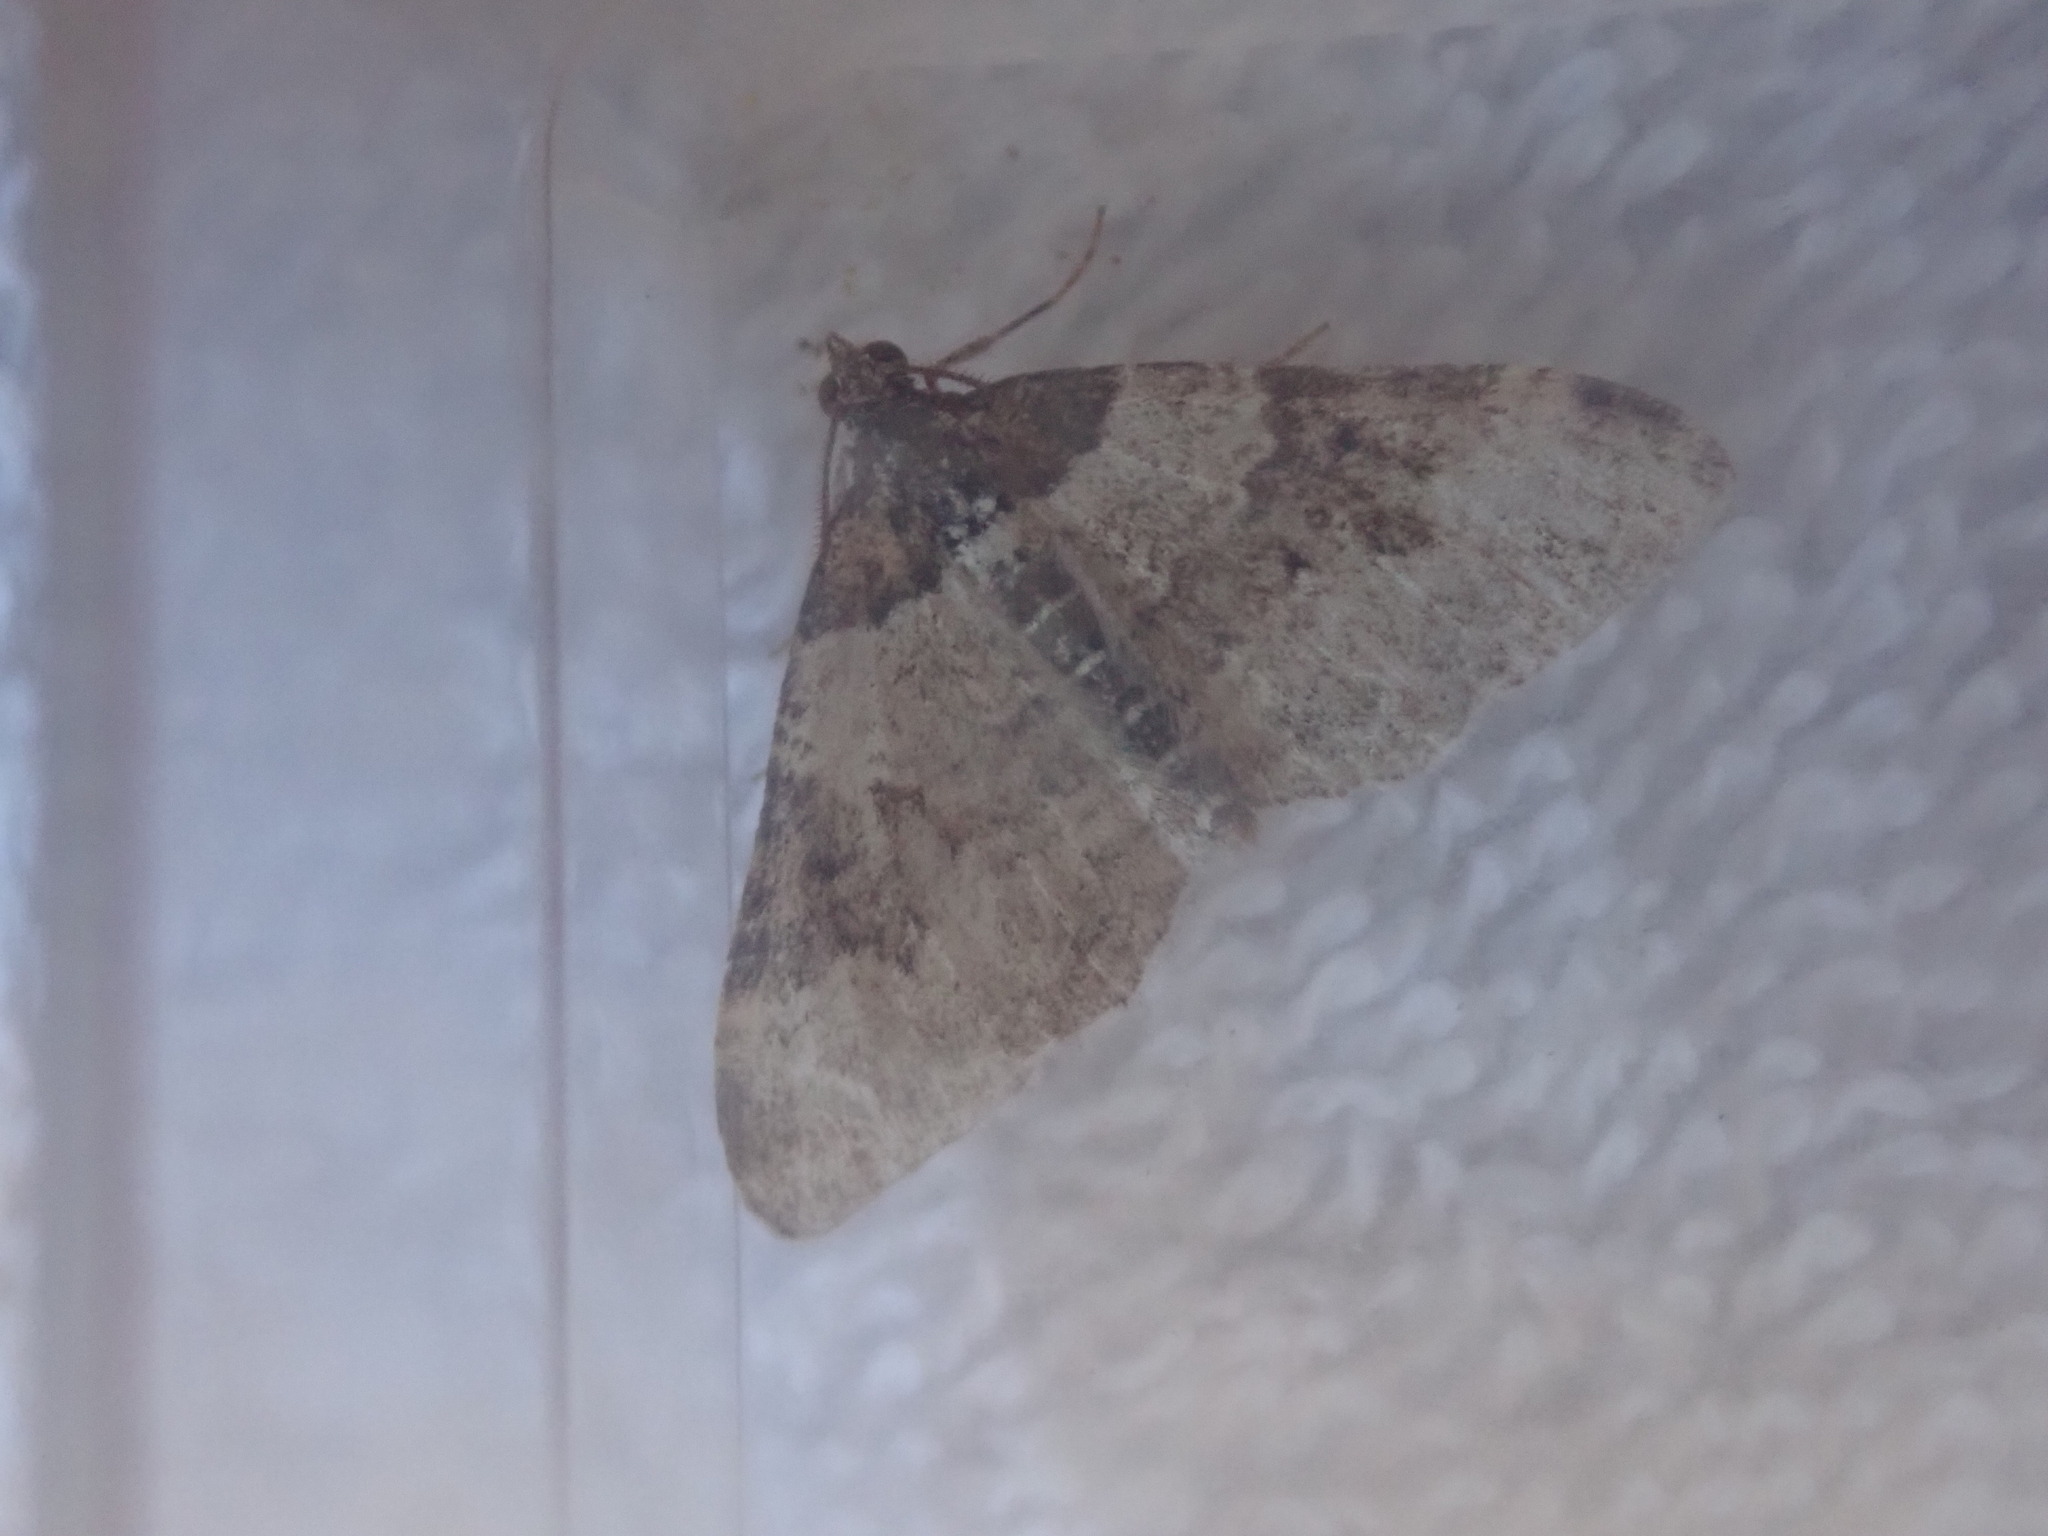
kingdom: Animalia
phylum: Arthropoda
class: Insecta
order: Lepidoptera
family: Geometridae
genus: Xanthorhoe
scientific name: Xanthorhoe fluctuata
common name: Garden carpet
